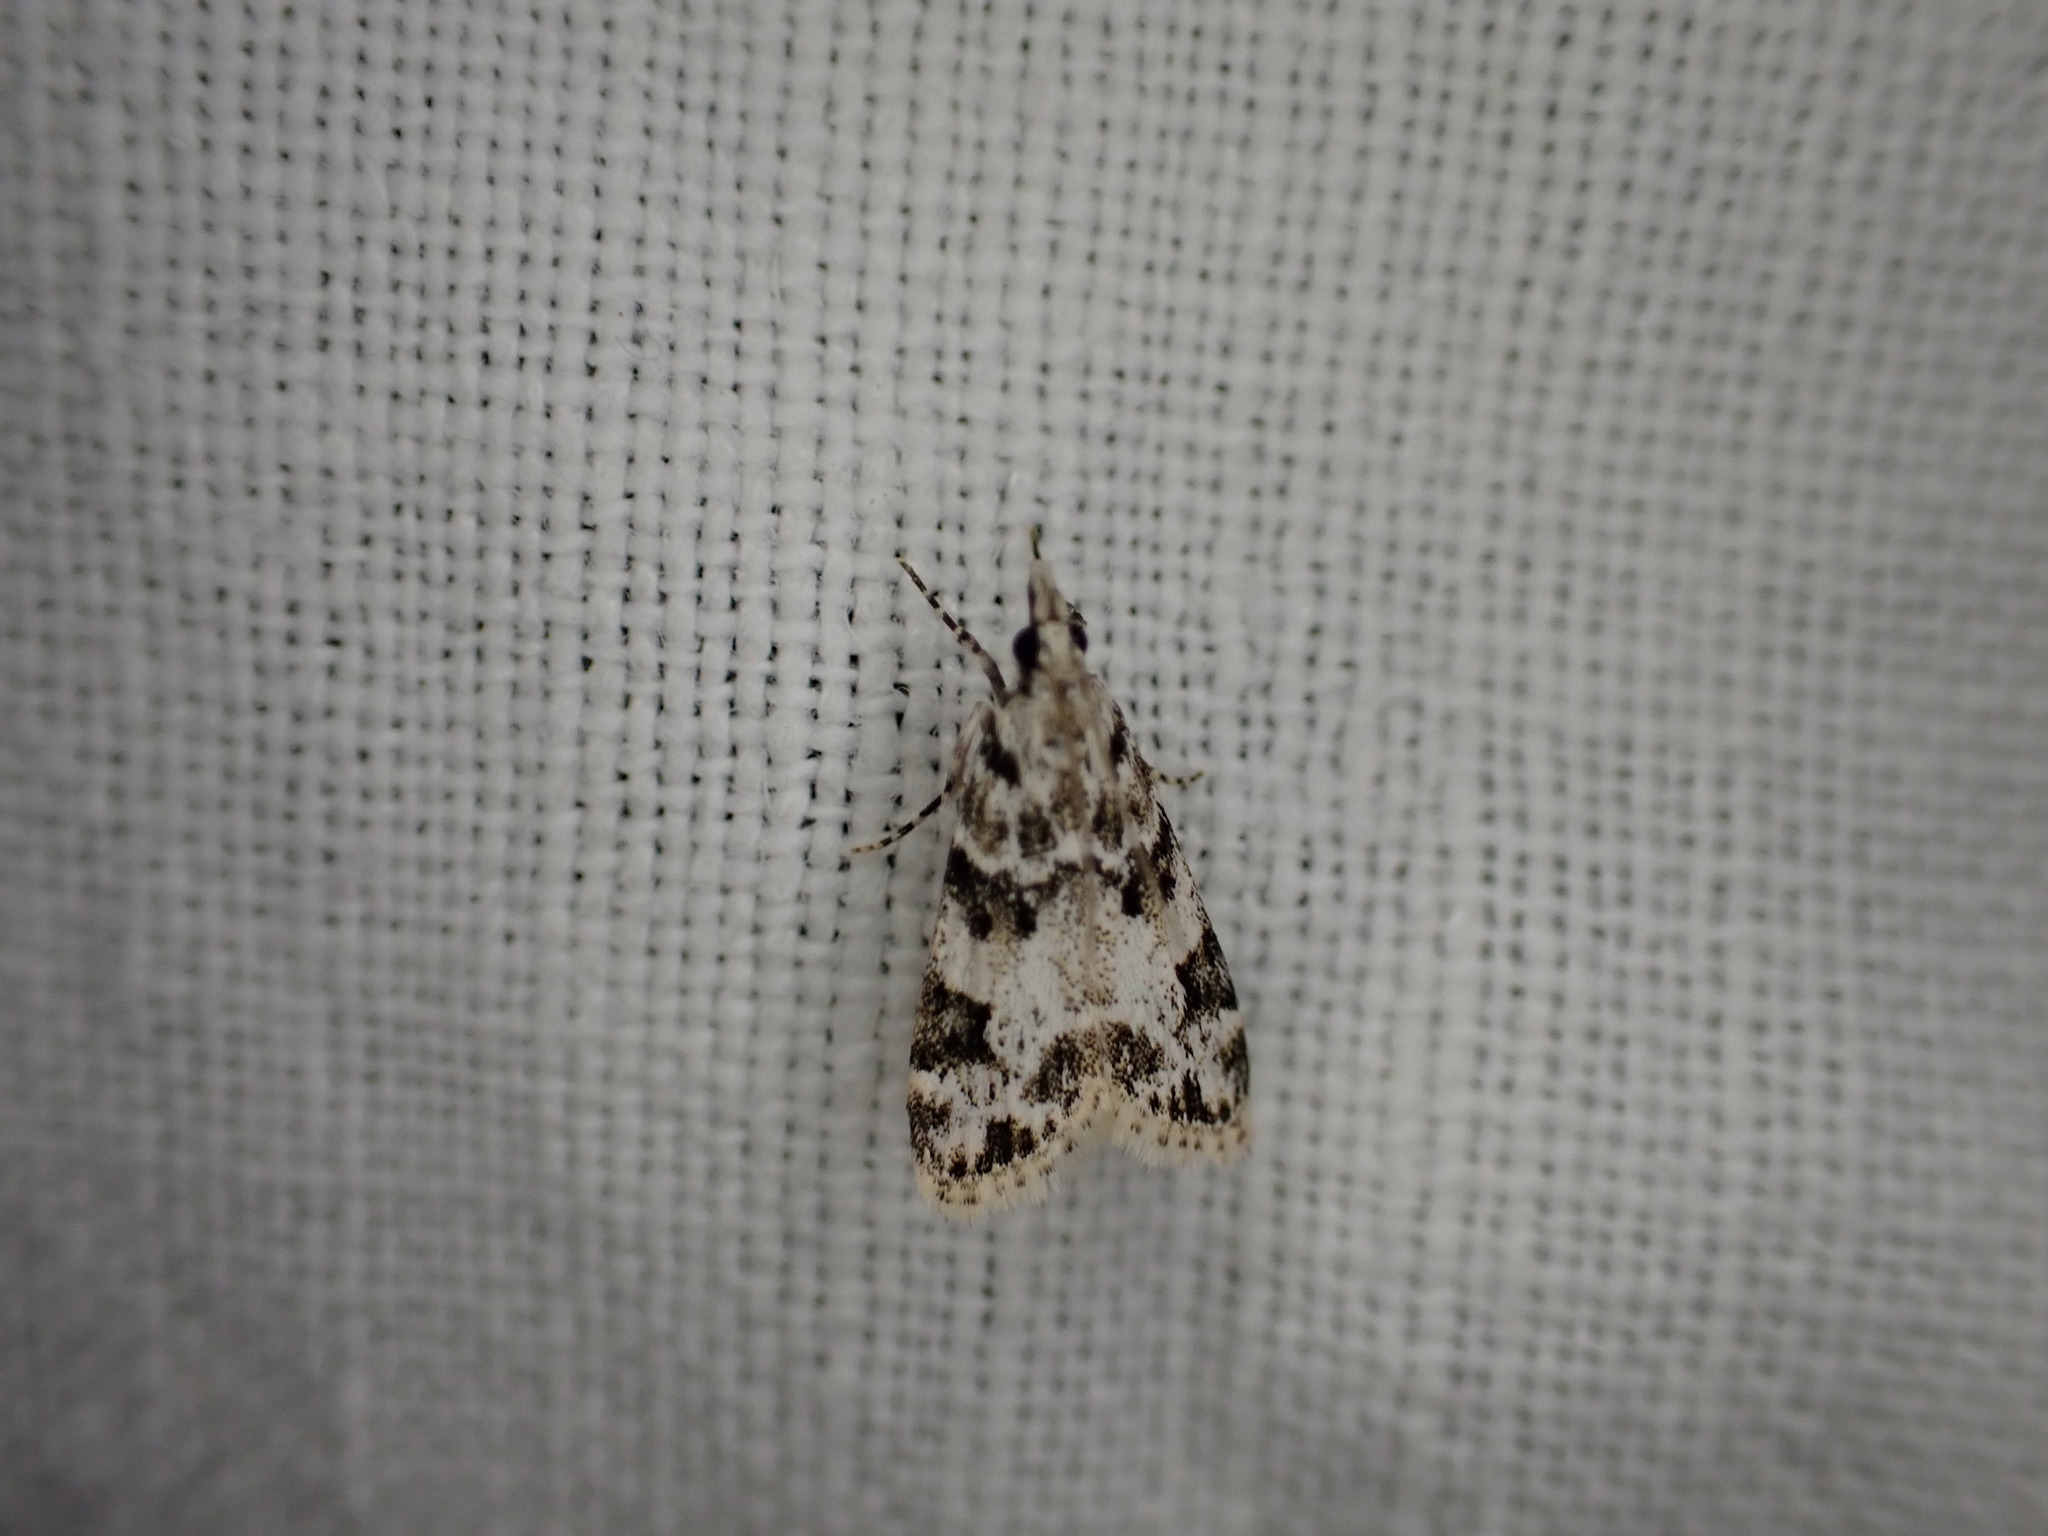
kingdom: Animalia
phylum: Arthropoda
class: Insecta
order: Lepidoptera
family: Crambidae
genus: Eudonia
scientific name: Eudonia delunella
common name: Pied grey
